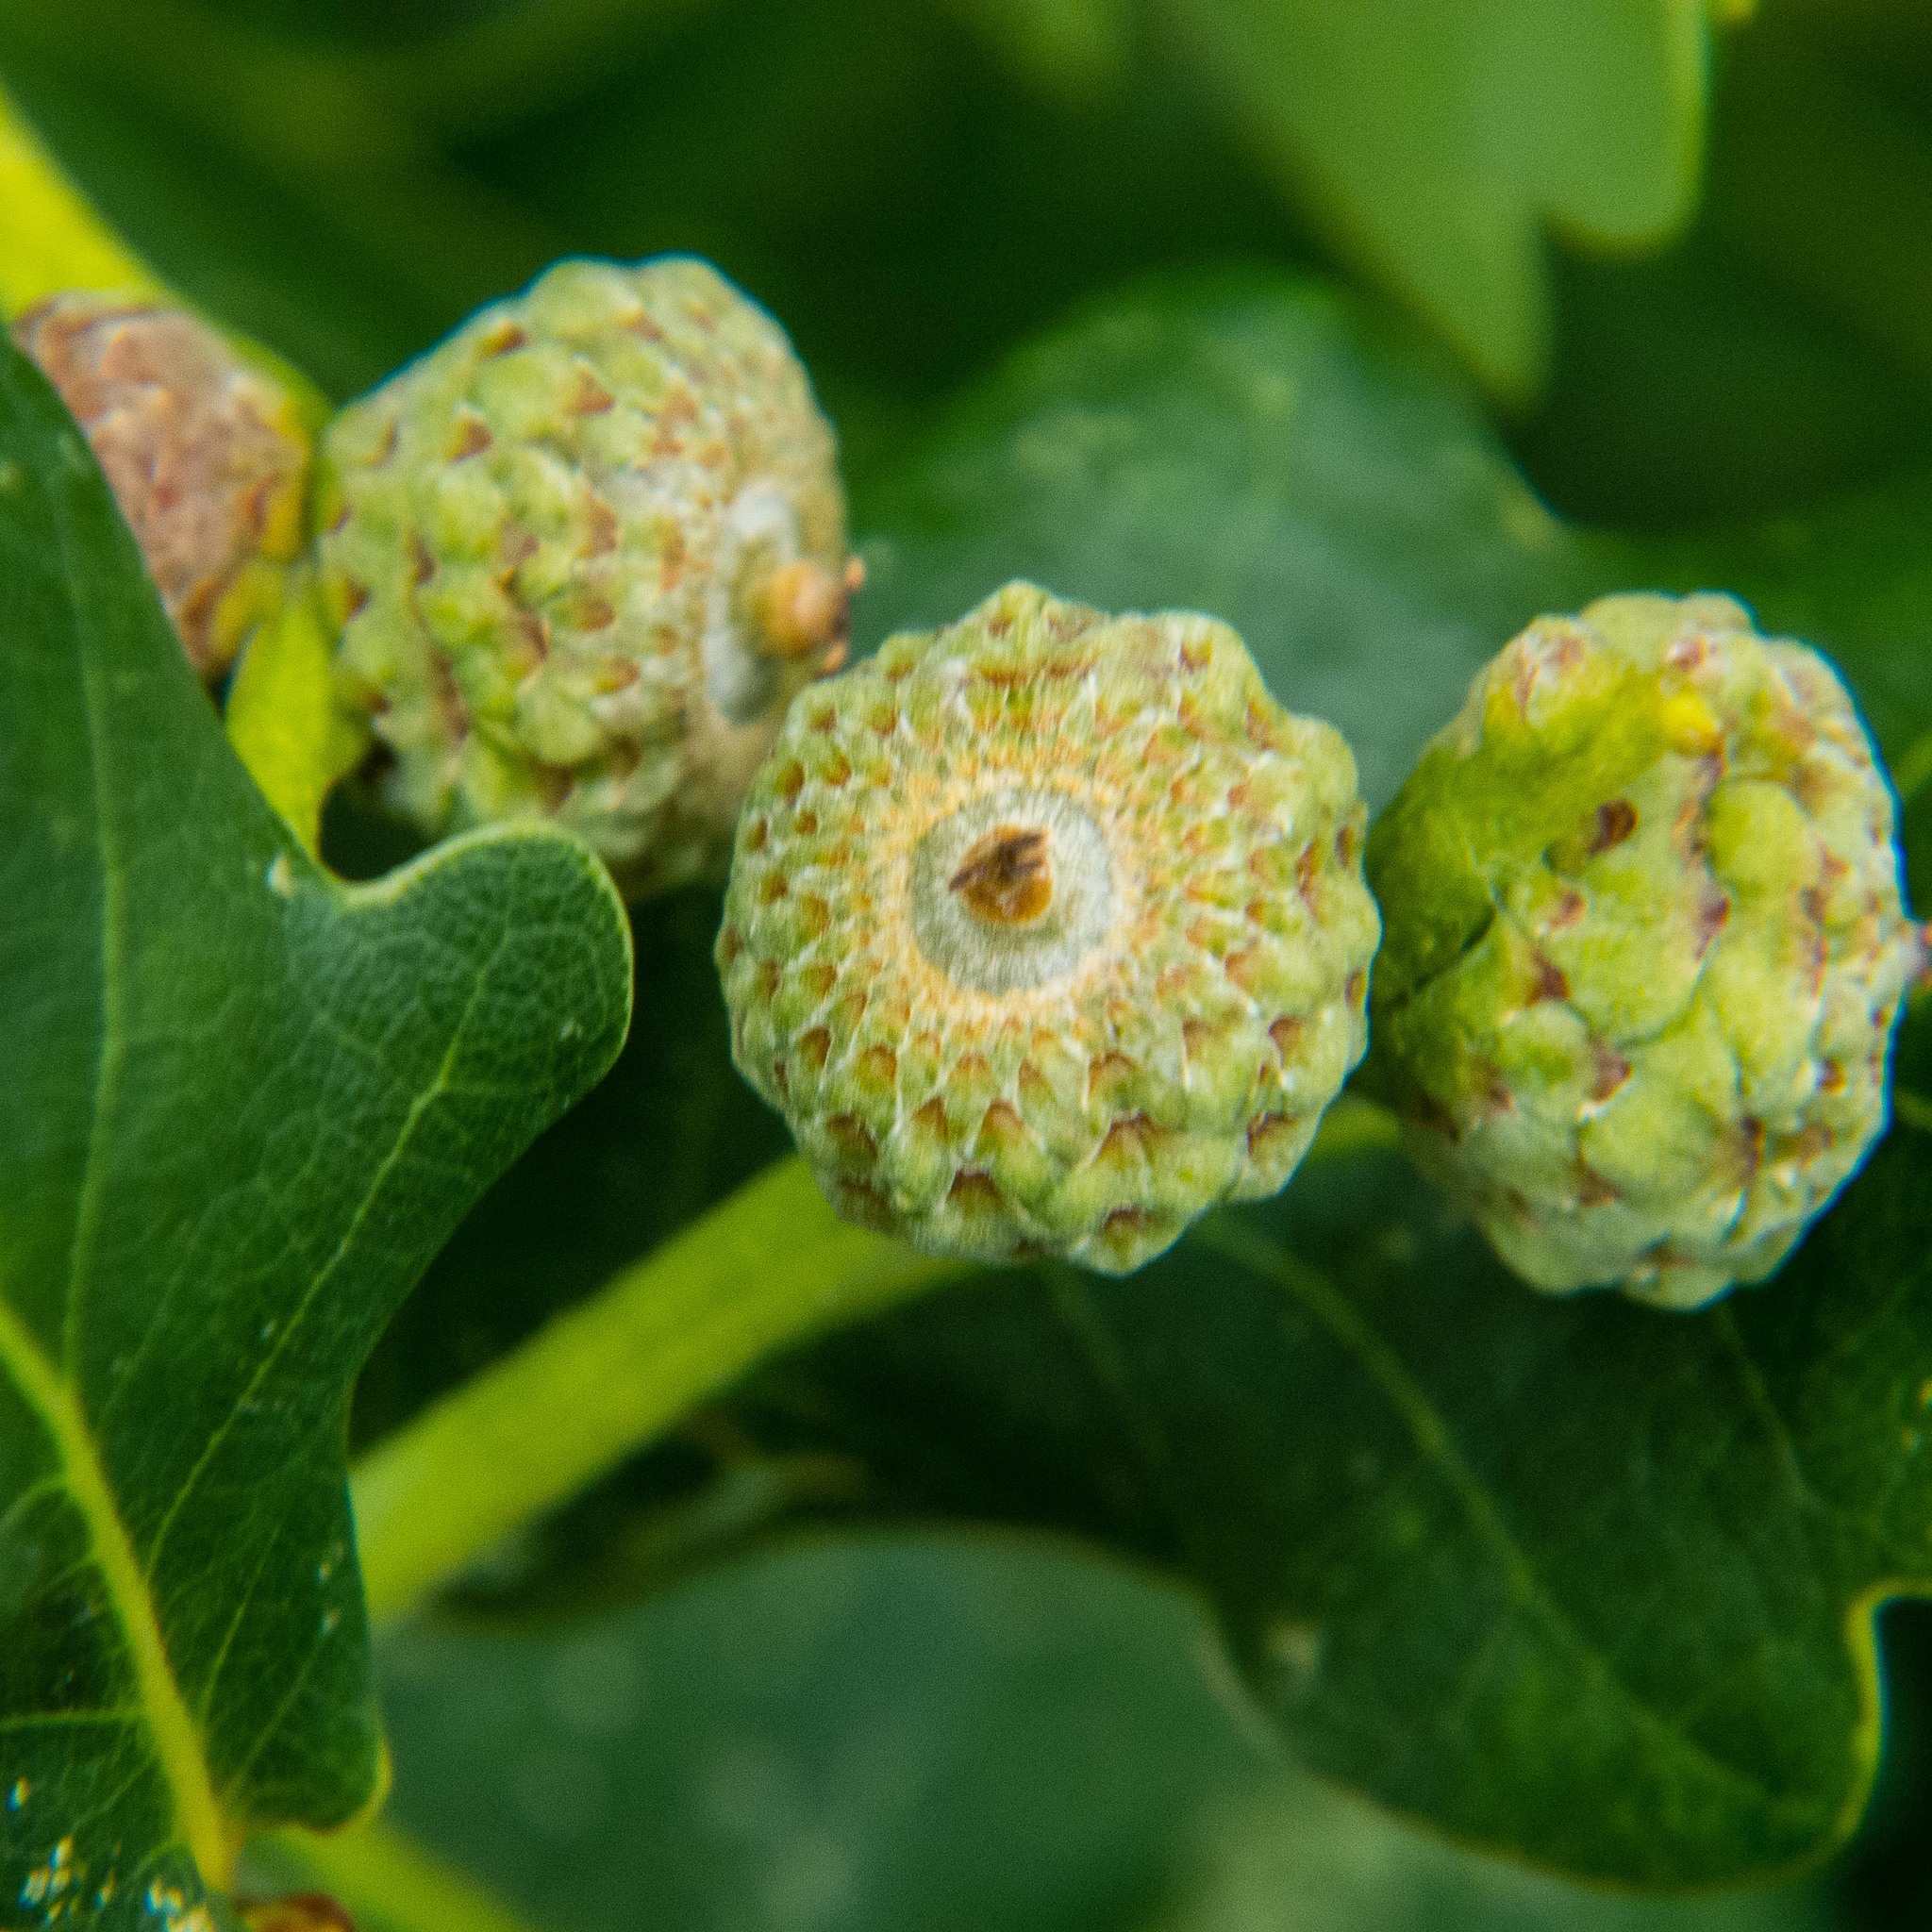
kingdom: Plantae
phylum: Tracheophyta
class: Magnoliopsida
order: Fagales
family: Fagaceae
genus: Quercus
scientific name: Quercus robur
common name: Pedunculate oak
